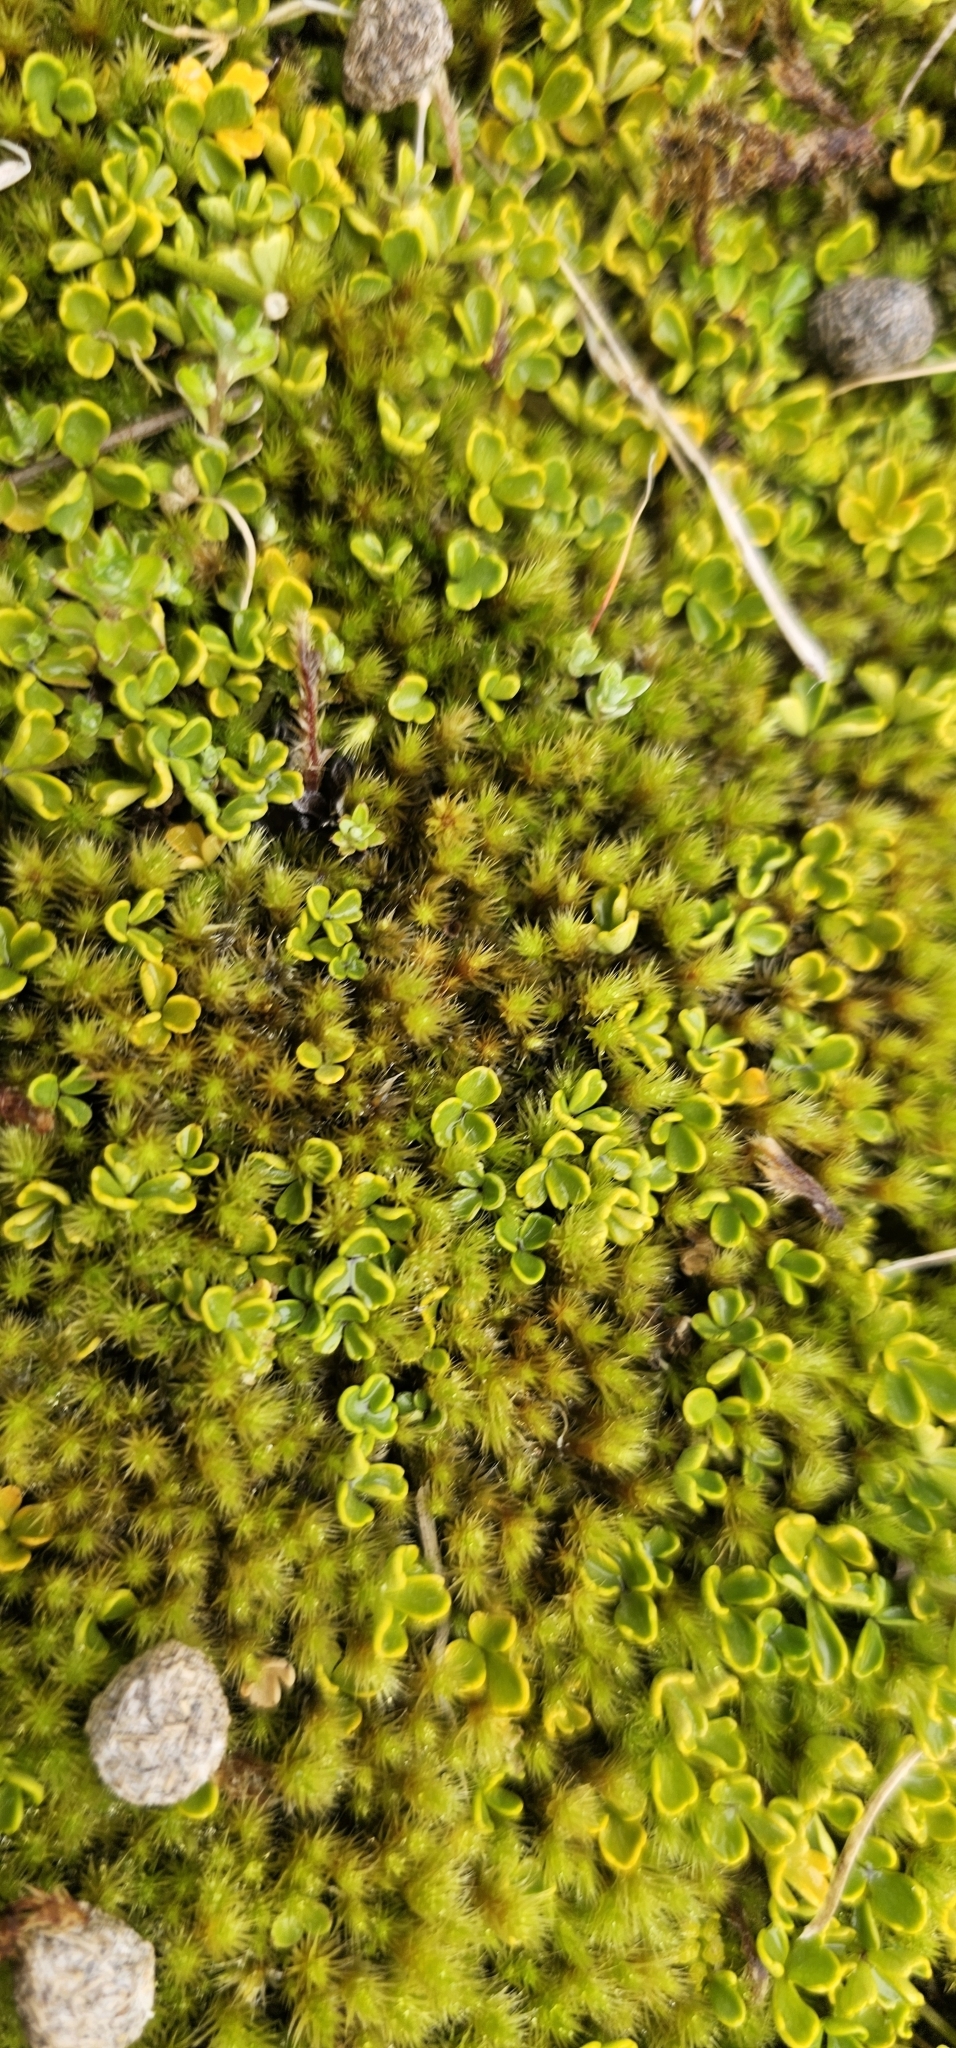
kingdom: Plantae
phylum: Tracheophyta
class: Magnoliopsida
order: Apiales
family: Apiaceae
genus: Azorella
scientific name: Azorella pallida
